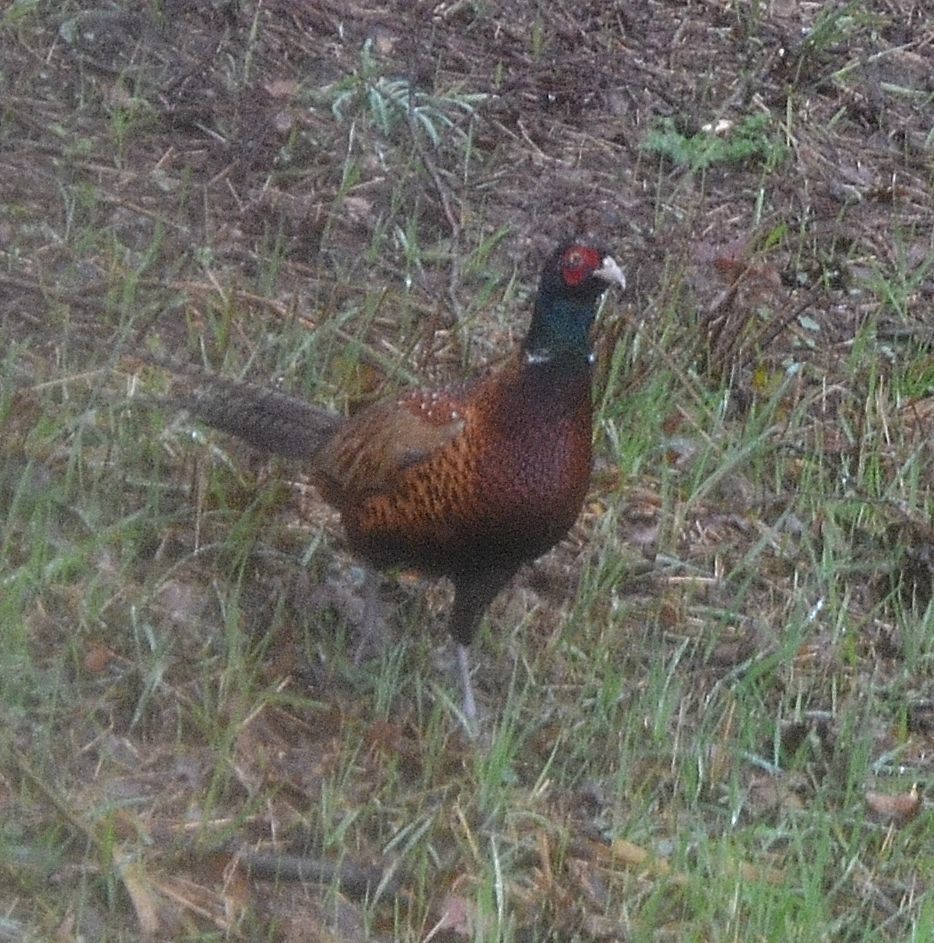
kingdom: Animalia
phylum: Chordata
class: Aves
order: Galliformes
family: Phasianidae
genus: Phasianus
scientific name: Phasianus colchicus
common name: Common pheasant
